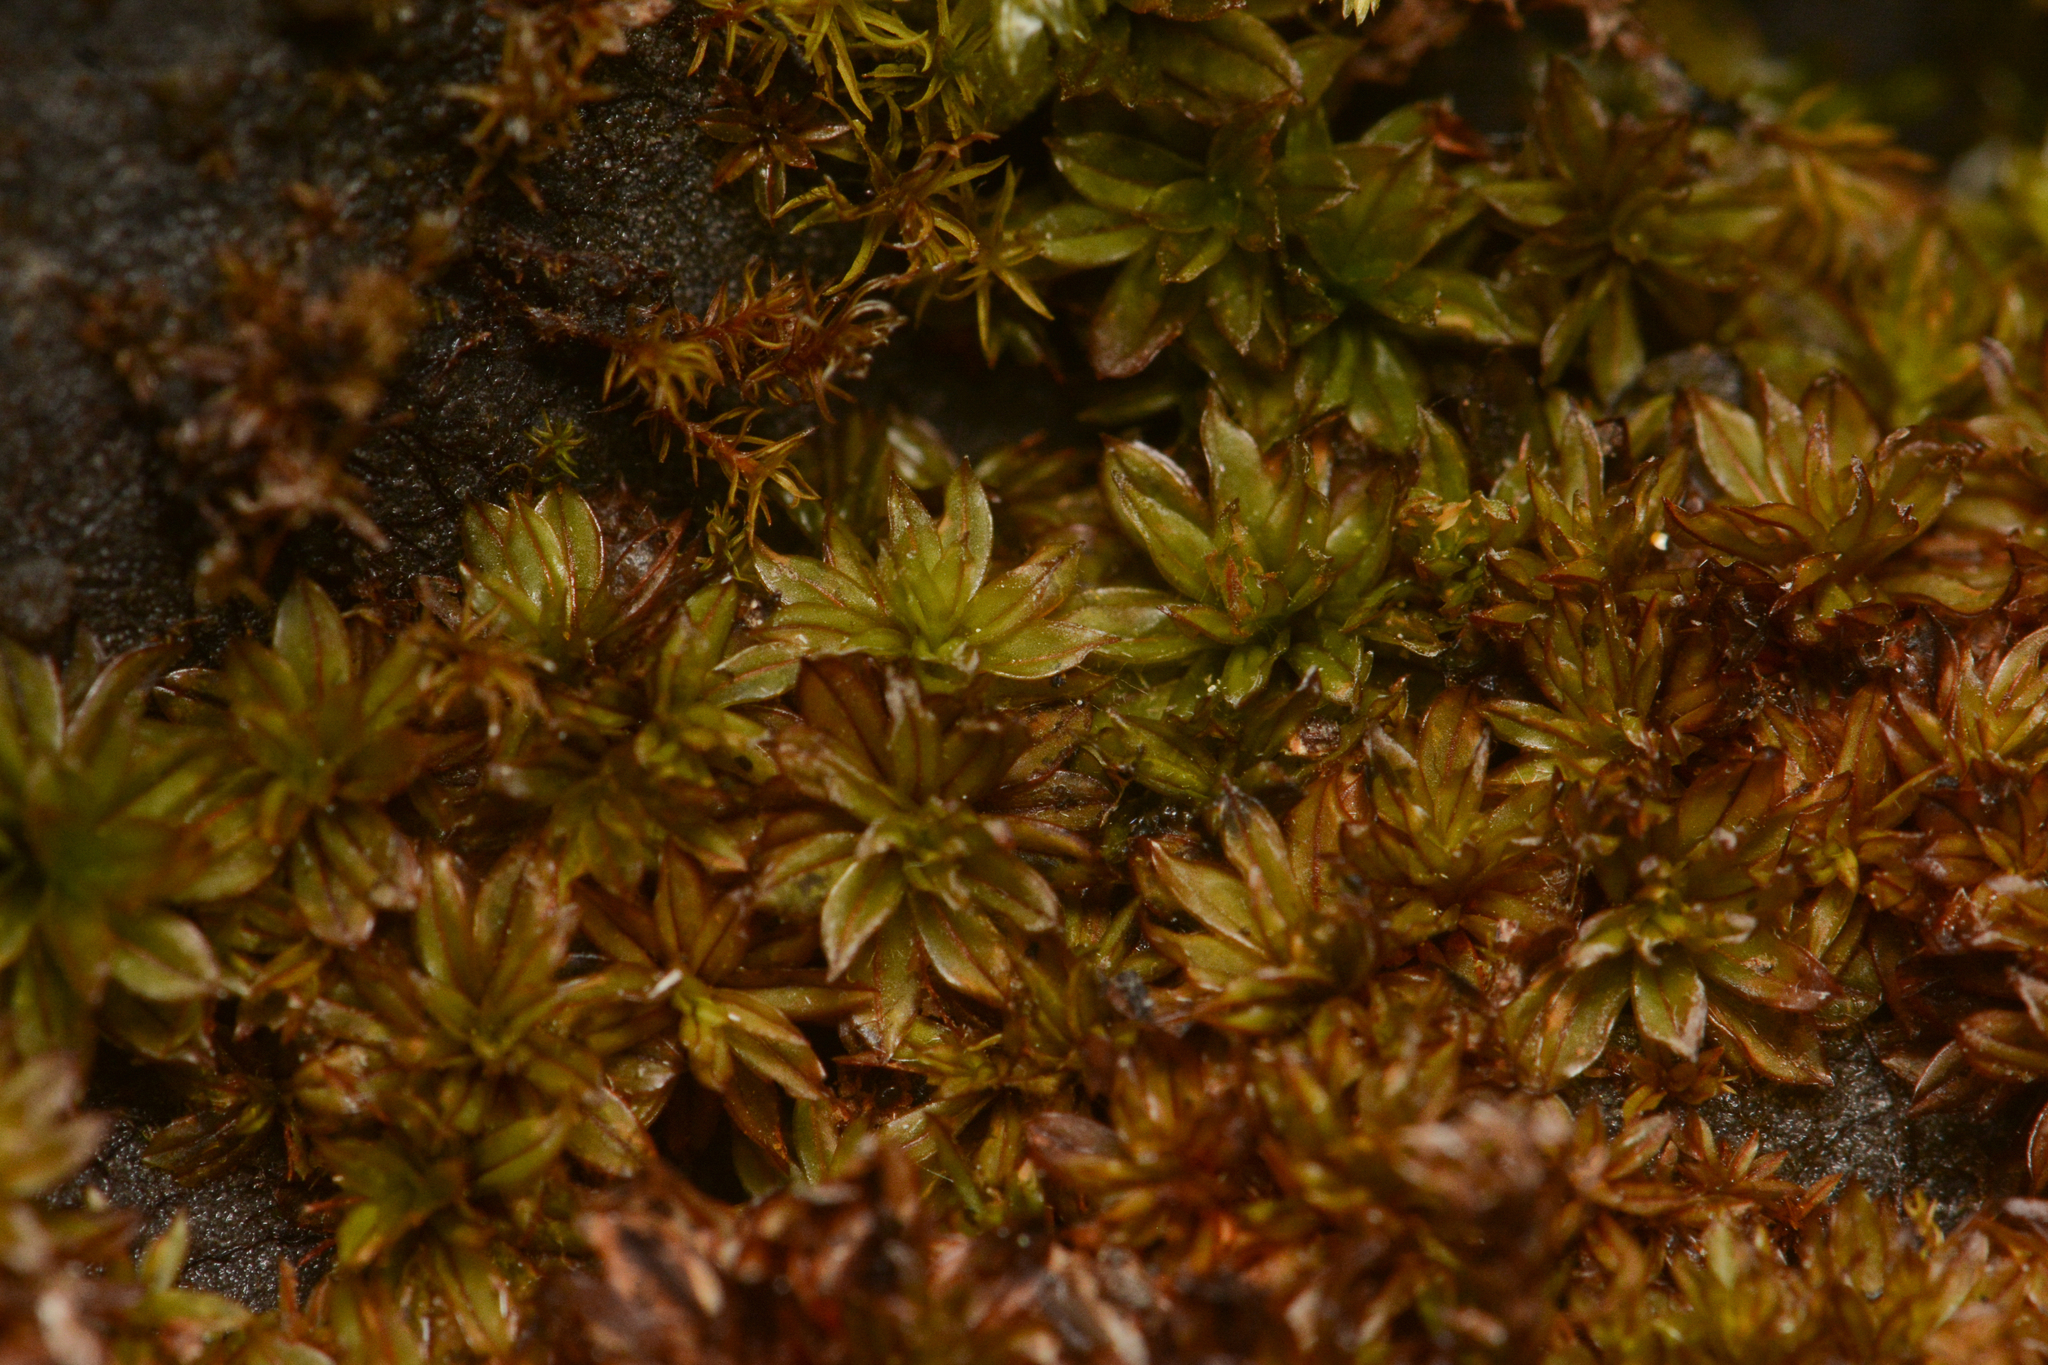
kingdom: Plantae
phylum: Bryophyta
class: Bryopsida
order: Pottiales
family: Pottiaceae
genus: Crumia
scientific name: Crumia latifolia
